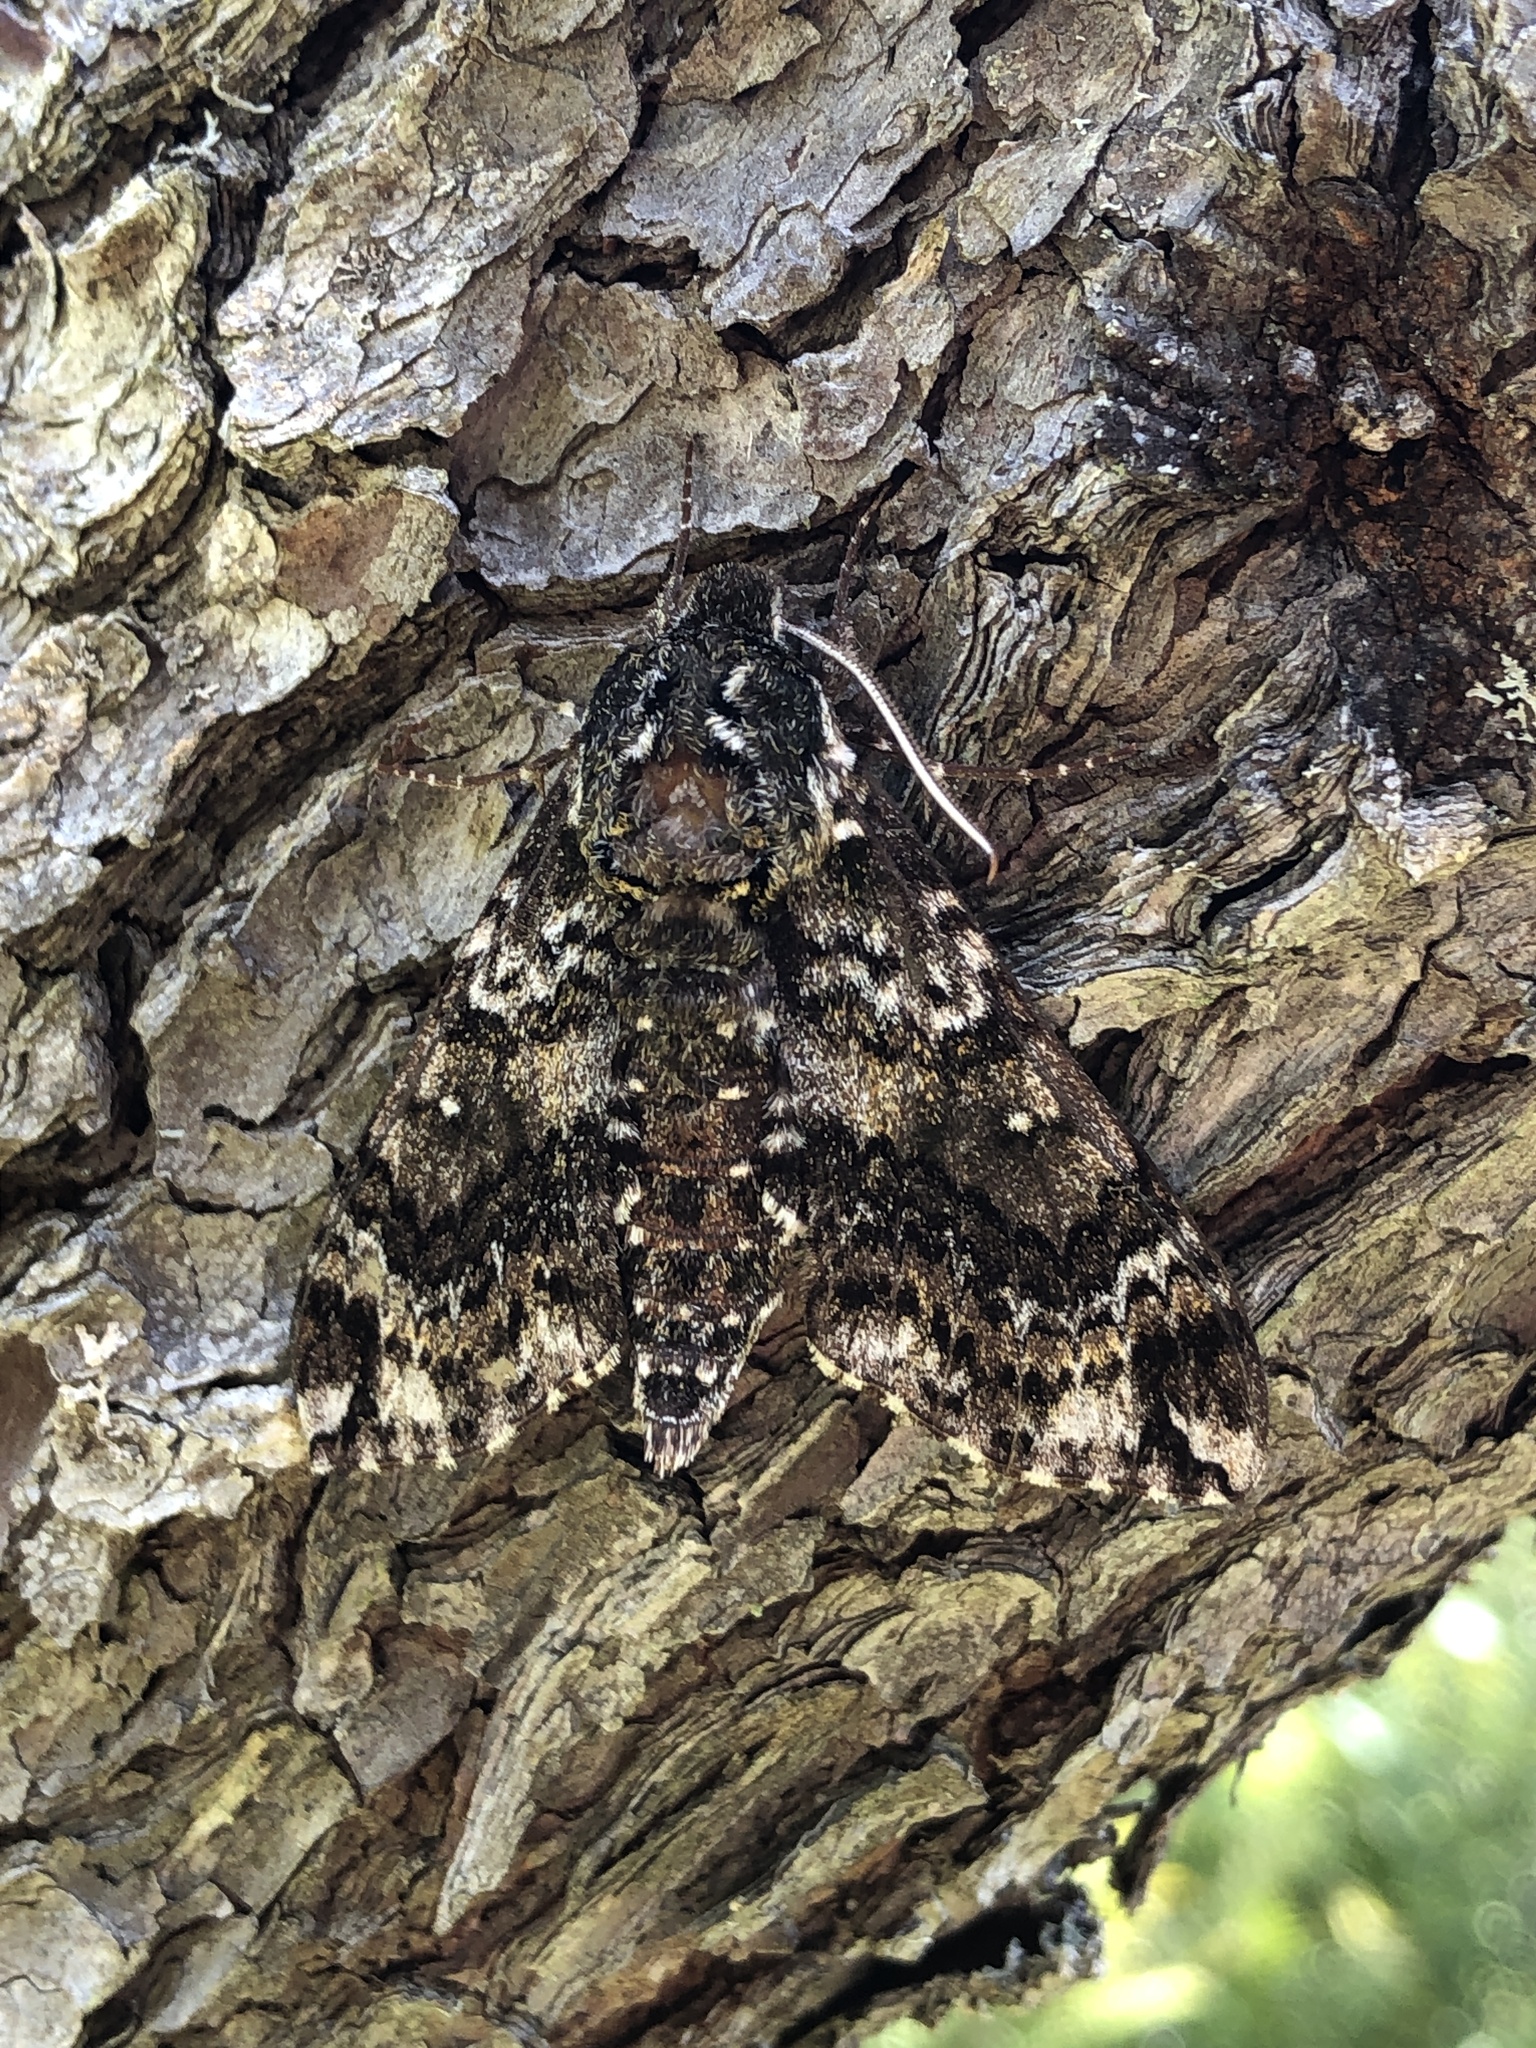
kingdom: Animalia
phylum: Arthropoda
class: Insecta
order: Lepidoptera
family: Sphingidae
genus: Dolba
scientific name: Dolba hyloeus
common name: Pawpaw sphinx
